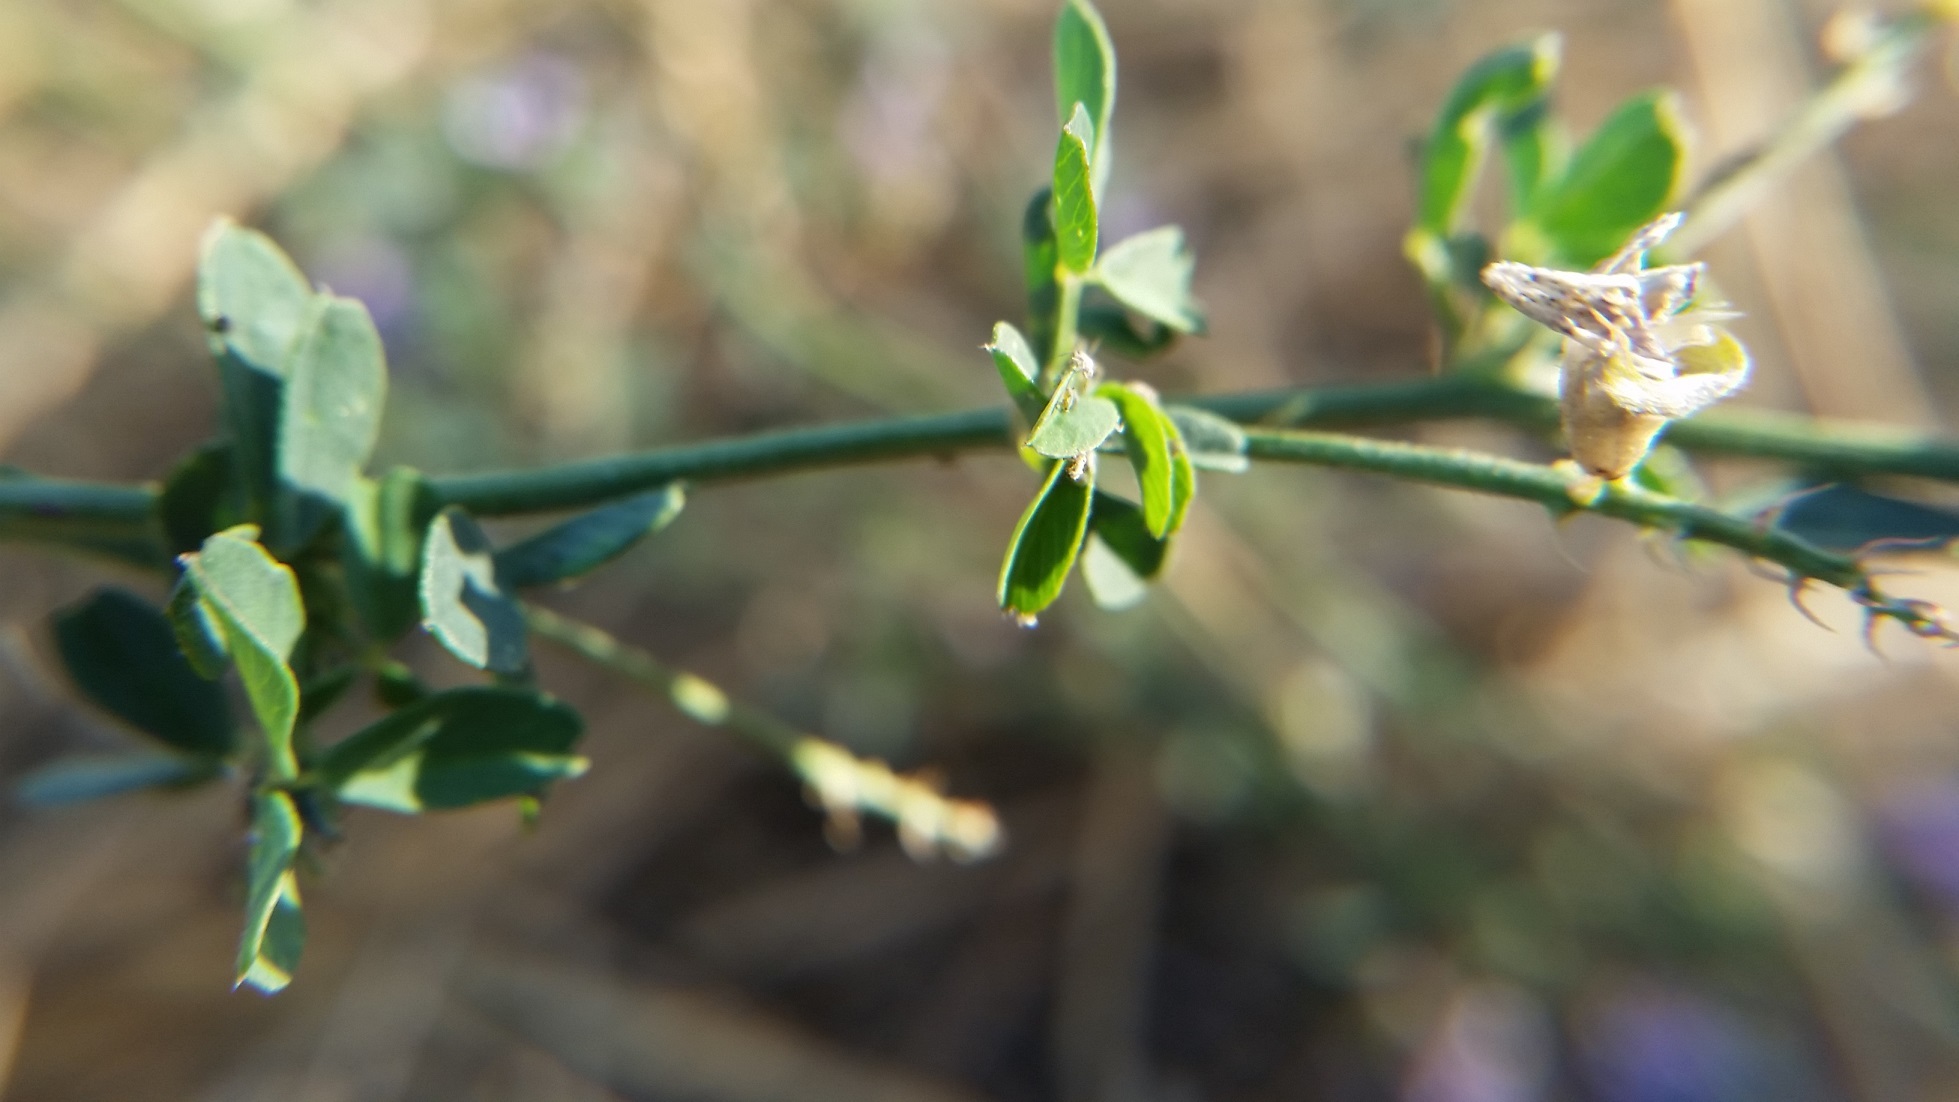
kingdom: Plantae
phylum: Tracheophyta
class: Magnoliopsida
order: Fabales
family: Fabaceae
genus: Medicago
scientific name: Medicago sativa
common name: Alfalfa
